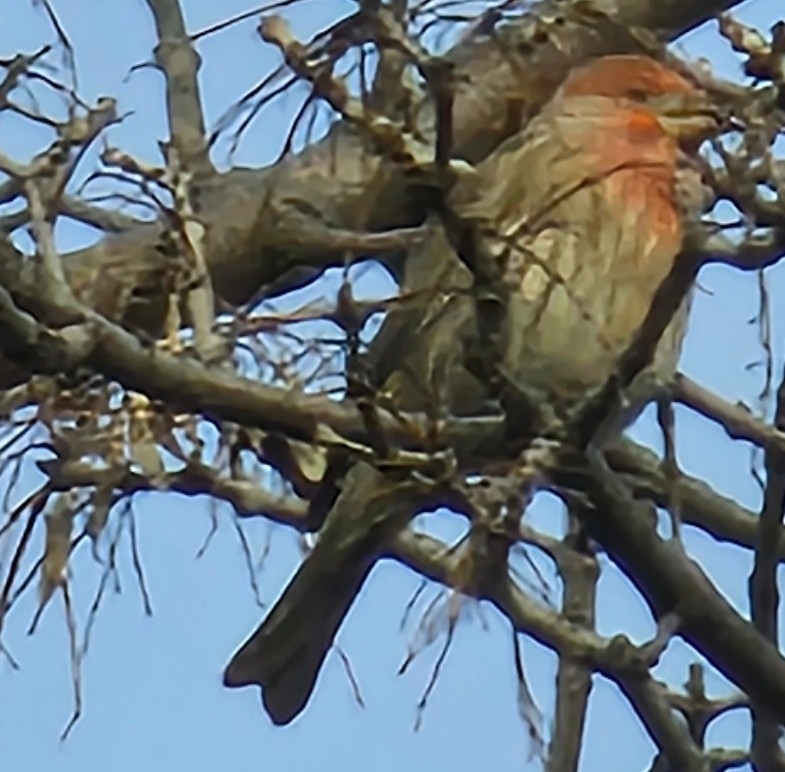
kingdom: Animalia
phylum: Chordata
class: Aves
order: Passeriformes
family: Fringillidae
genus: Haemorhous
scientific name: Haemorhous mexicanus
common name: House finch
